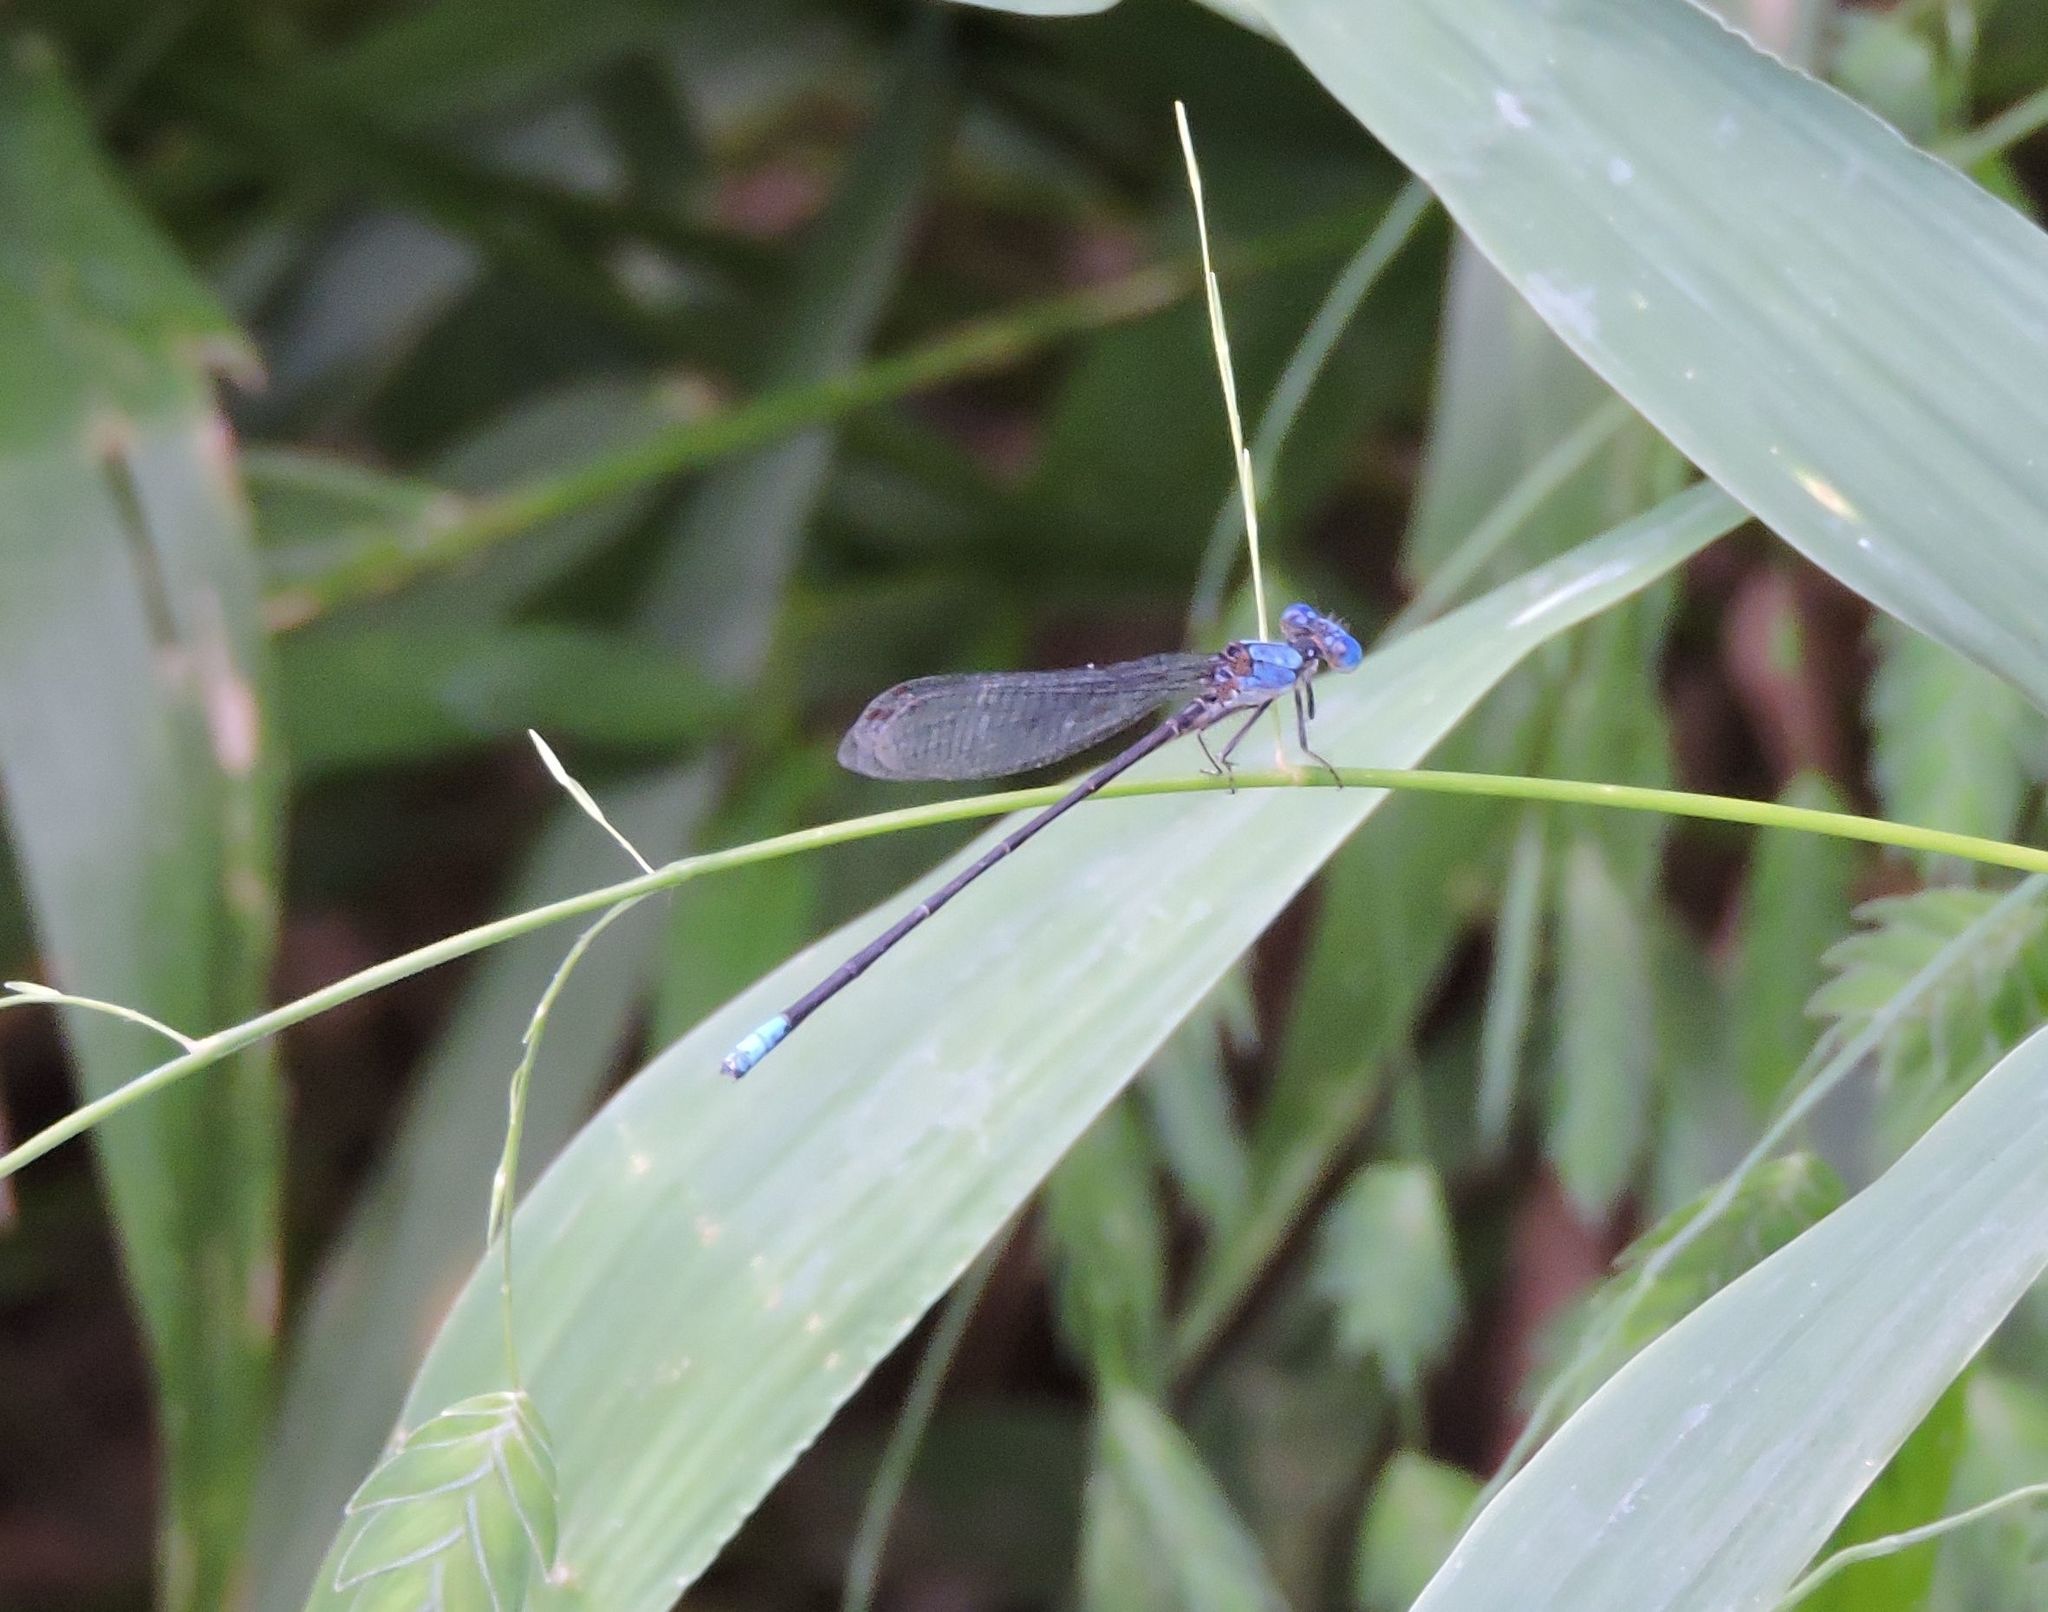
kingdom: Animalia
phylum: Arthropoda
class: Insecta
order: Odonata
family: Coenagrionidae
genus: Argia
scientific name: Argia apicalis
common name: Blue-fronted dancer
